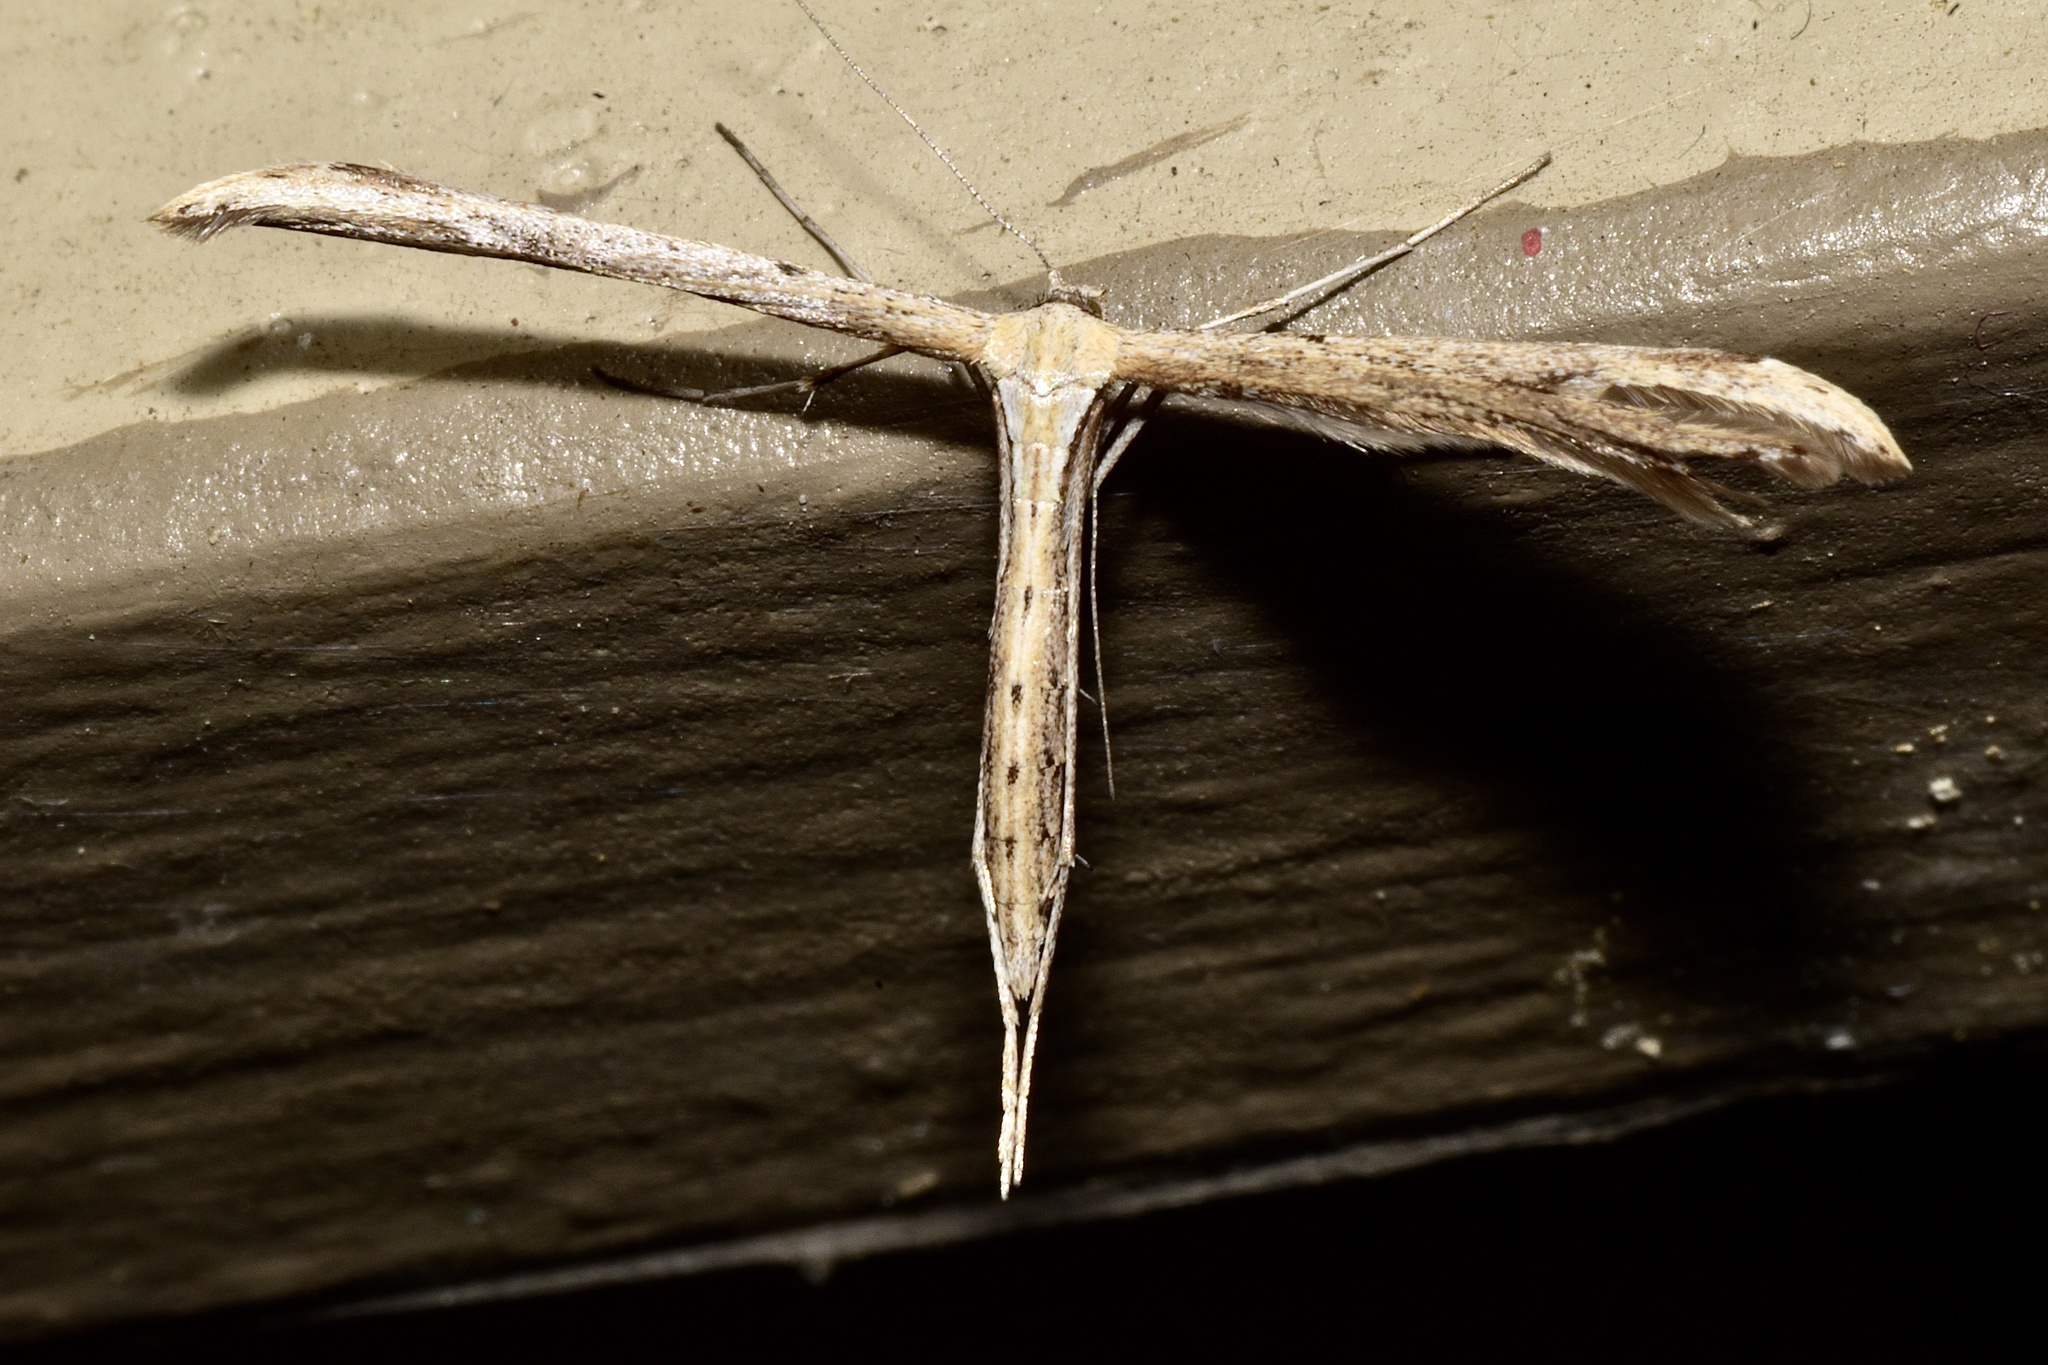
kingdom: Animalia
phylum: Arthropoda
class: Insecta
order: Lepidoptera
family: Pterophoridae
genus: Emmelina
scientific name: Emmelina monodactyla
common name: Common plume
